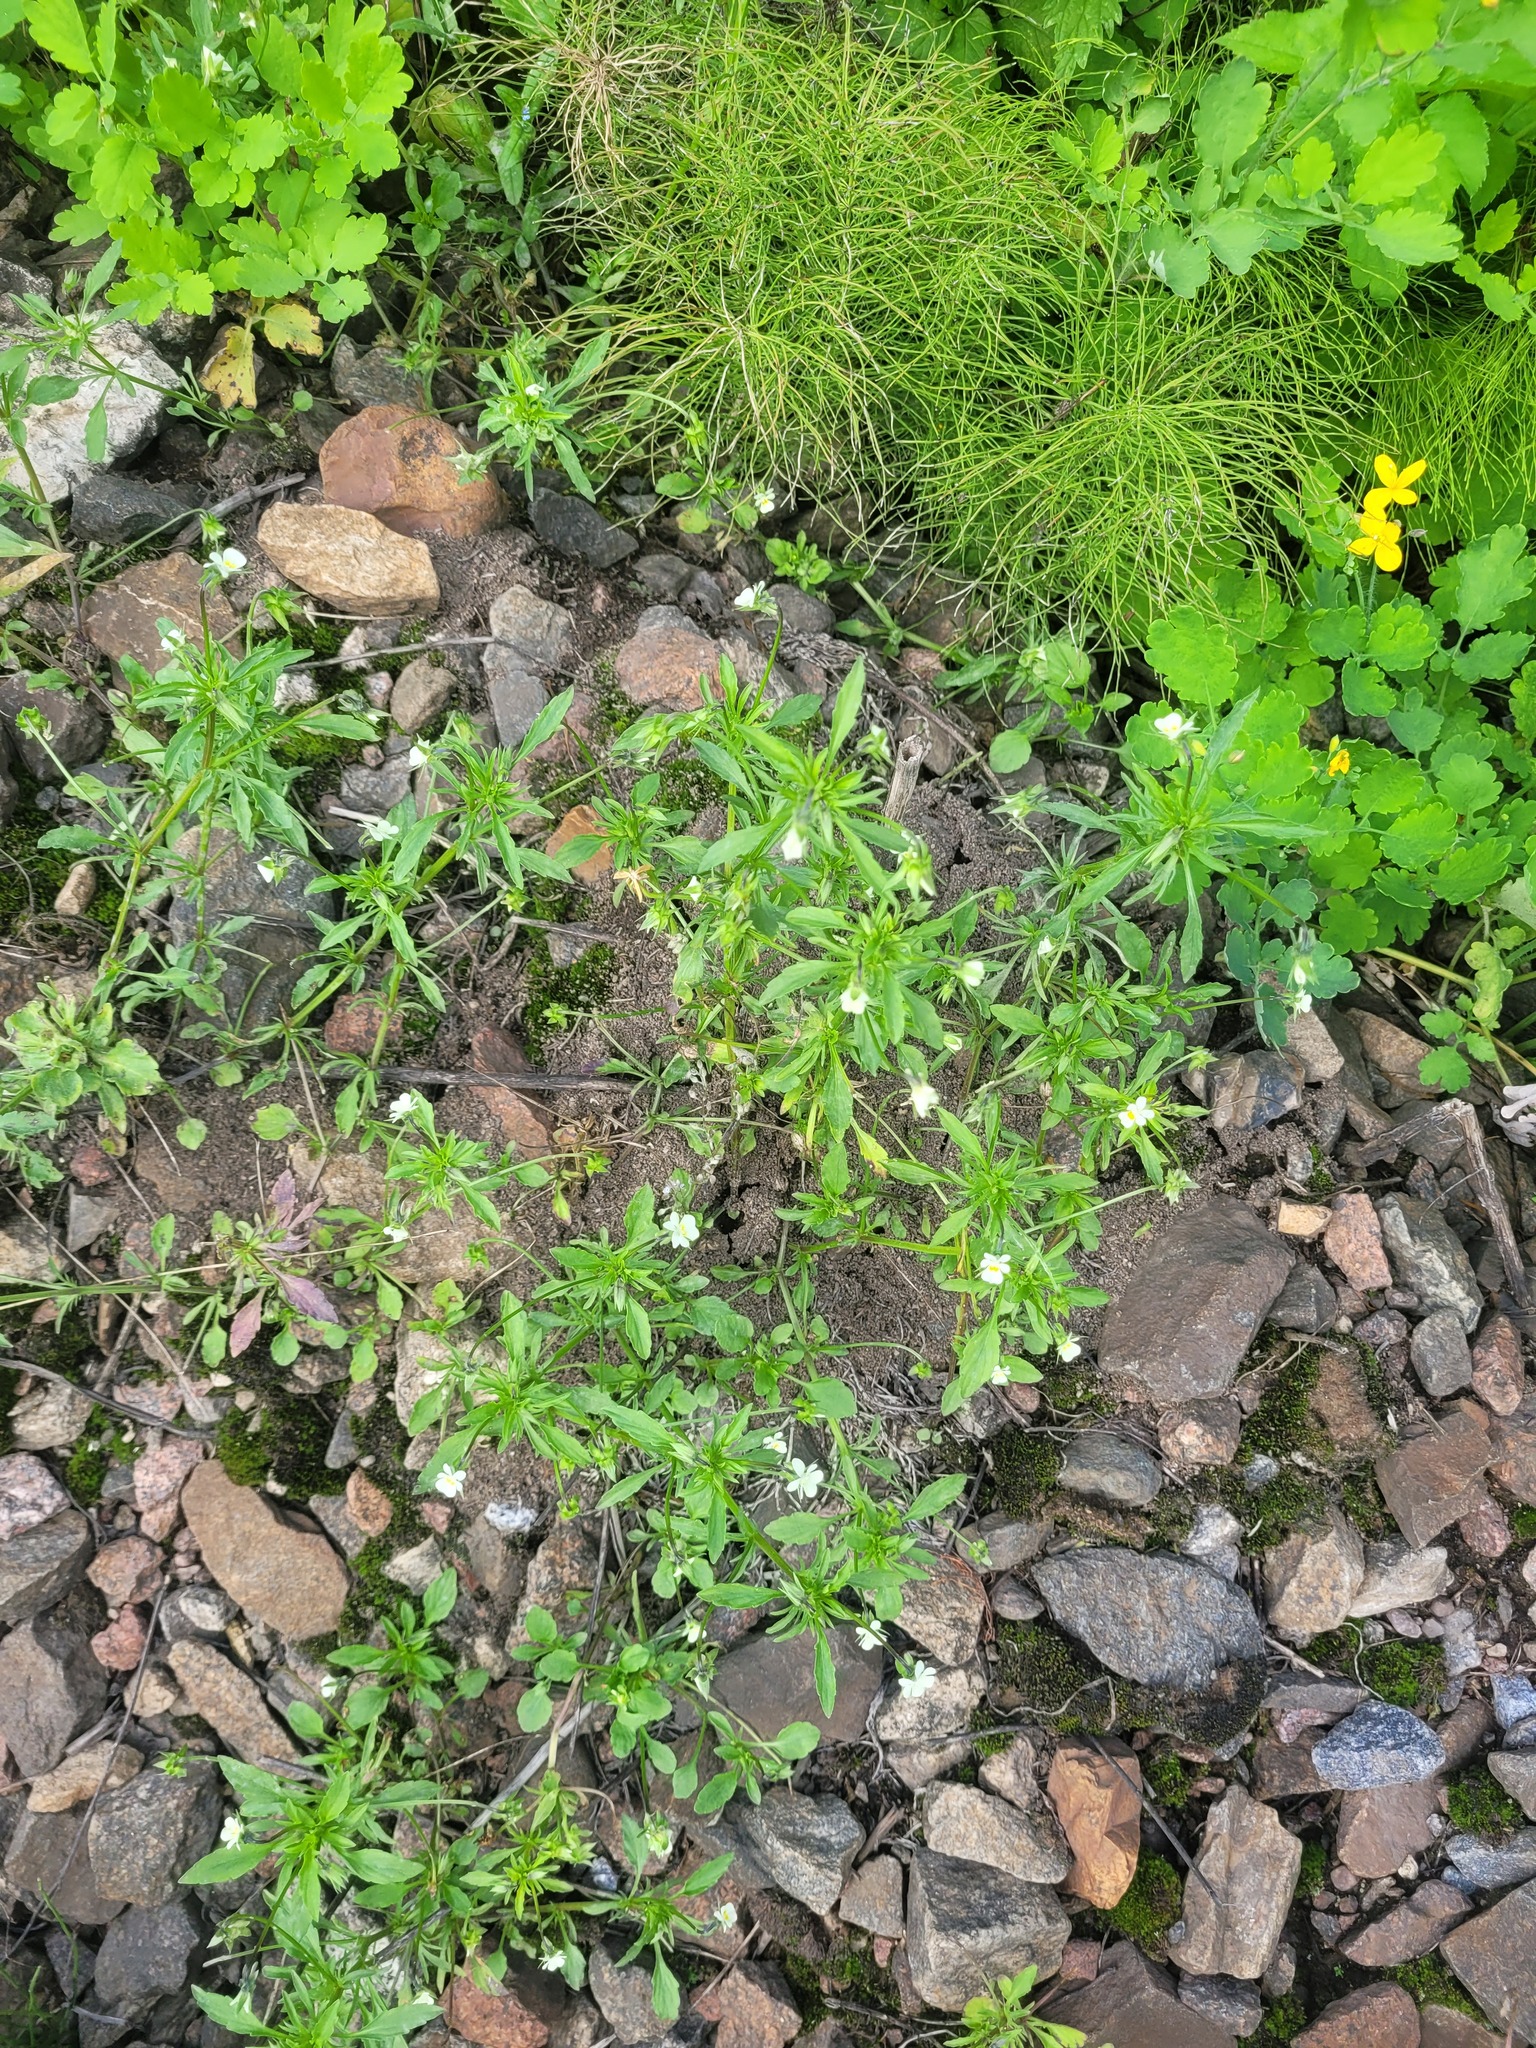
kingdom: Plantae
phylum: Tracheophyta
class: Magnoliopsida
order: Malpighiales
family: Violaceae
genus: Viola
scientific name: Viola arvensis
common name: Field pansy
